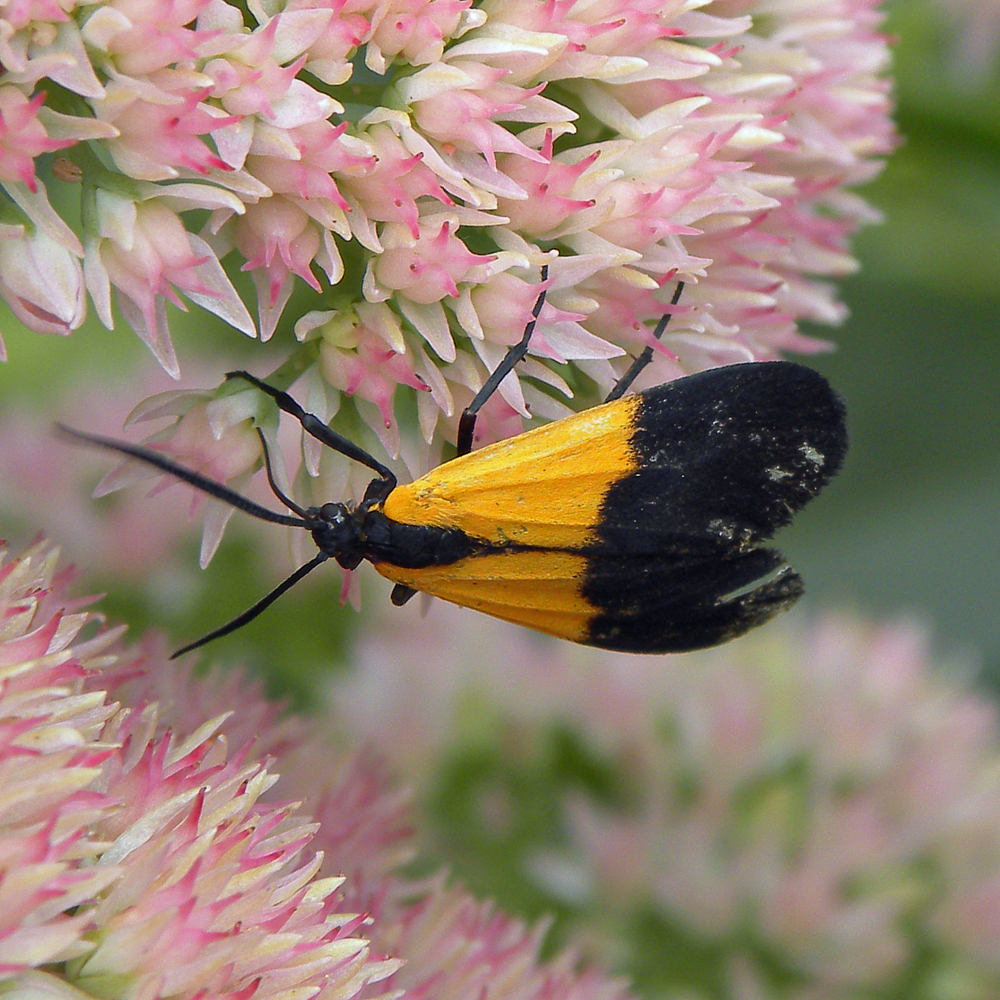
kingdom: Animalia
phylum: Arthropoda
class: Insecta
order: Lepidoptera
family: Erebidae
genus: Lycomorpha
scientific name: Lycomorpha pholus
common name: Black-and-yellow lichen moth
